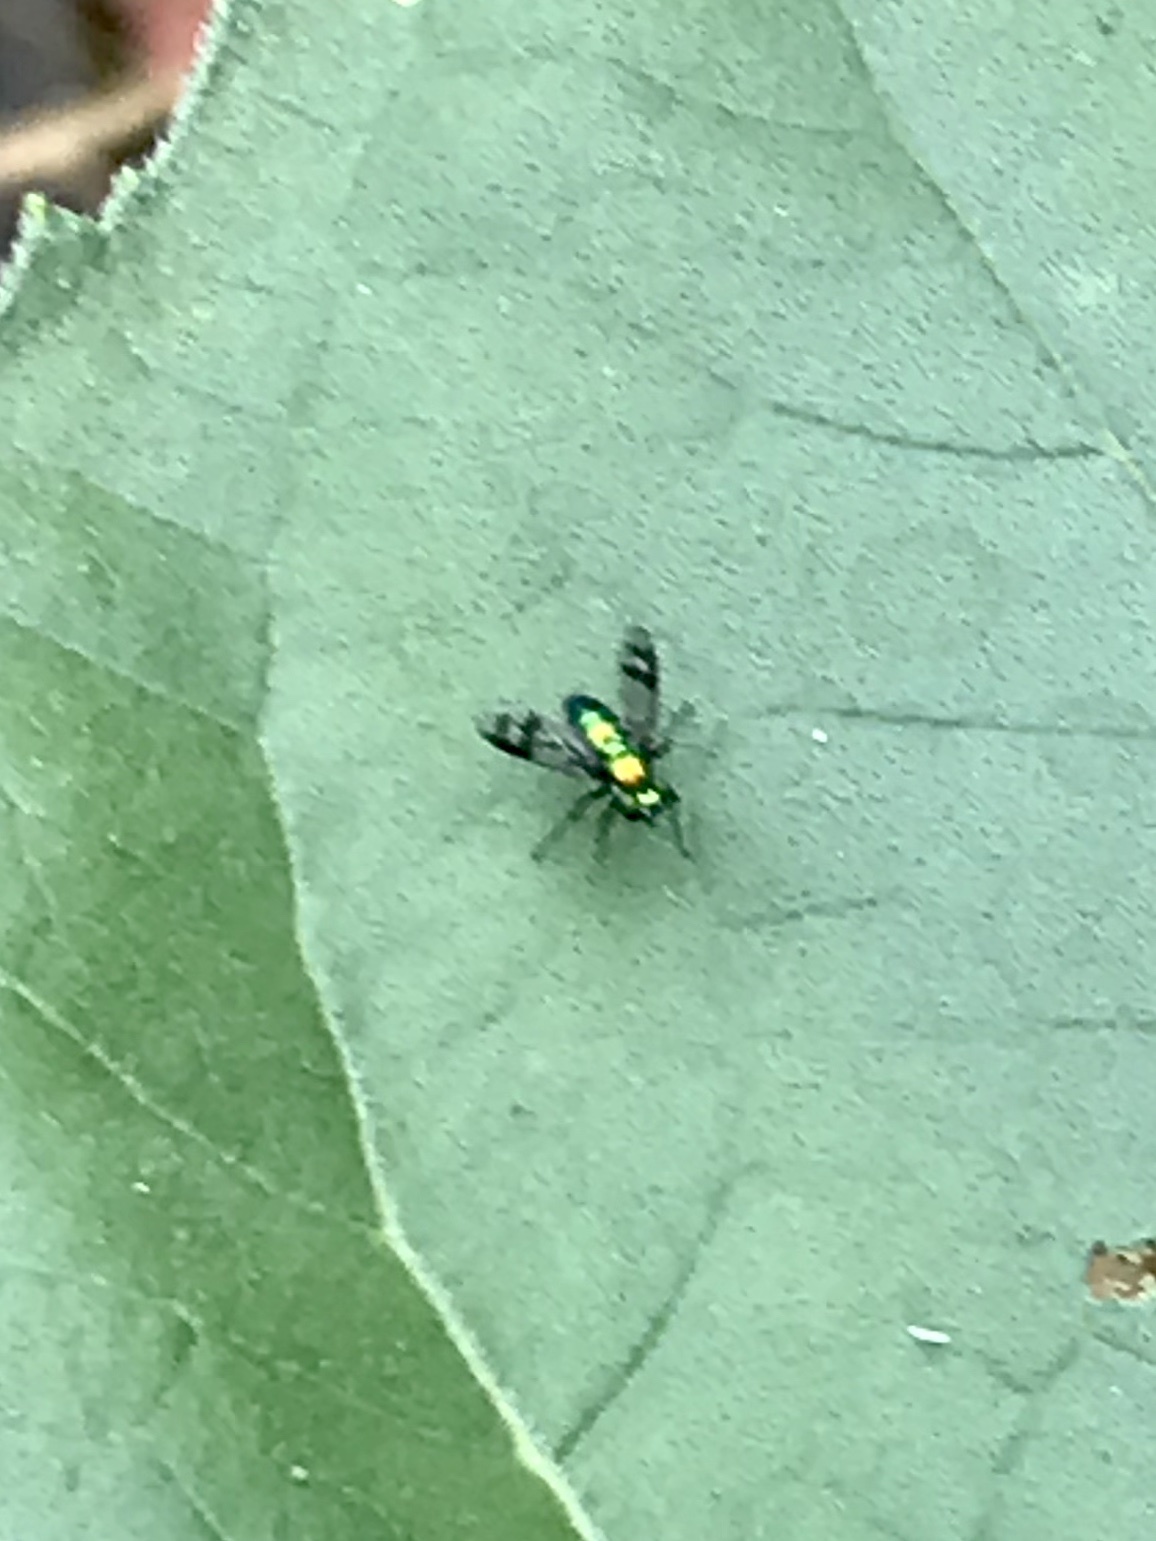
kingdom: Animalia
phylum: Arthropoda
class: Insecta
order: Diptera
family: Dolichopodidae
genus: Condylostylus
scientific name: Condylostylus occidentalis
